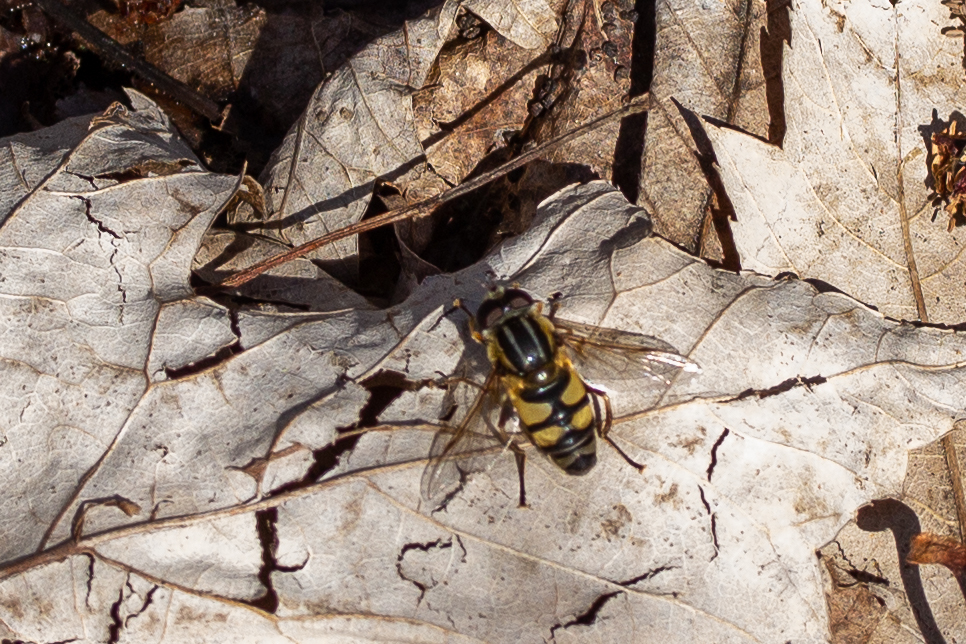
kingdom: Animalia
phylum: Arthropoda
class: Insecta
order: Diptera
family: Syrphidae
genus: Helophilus
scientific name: Helophilus fasciatus
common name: Narrow-headed marsh fly
